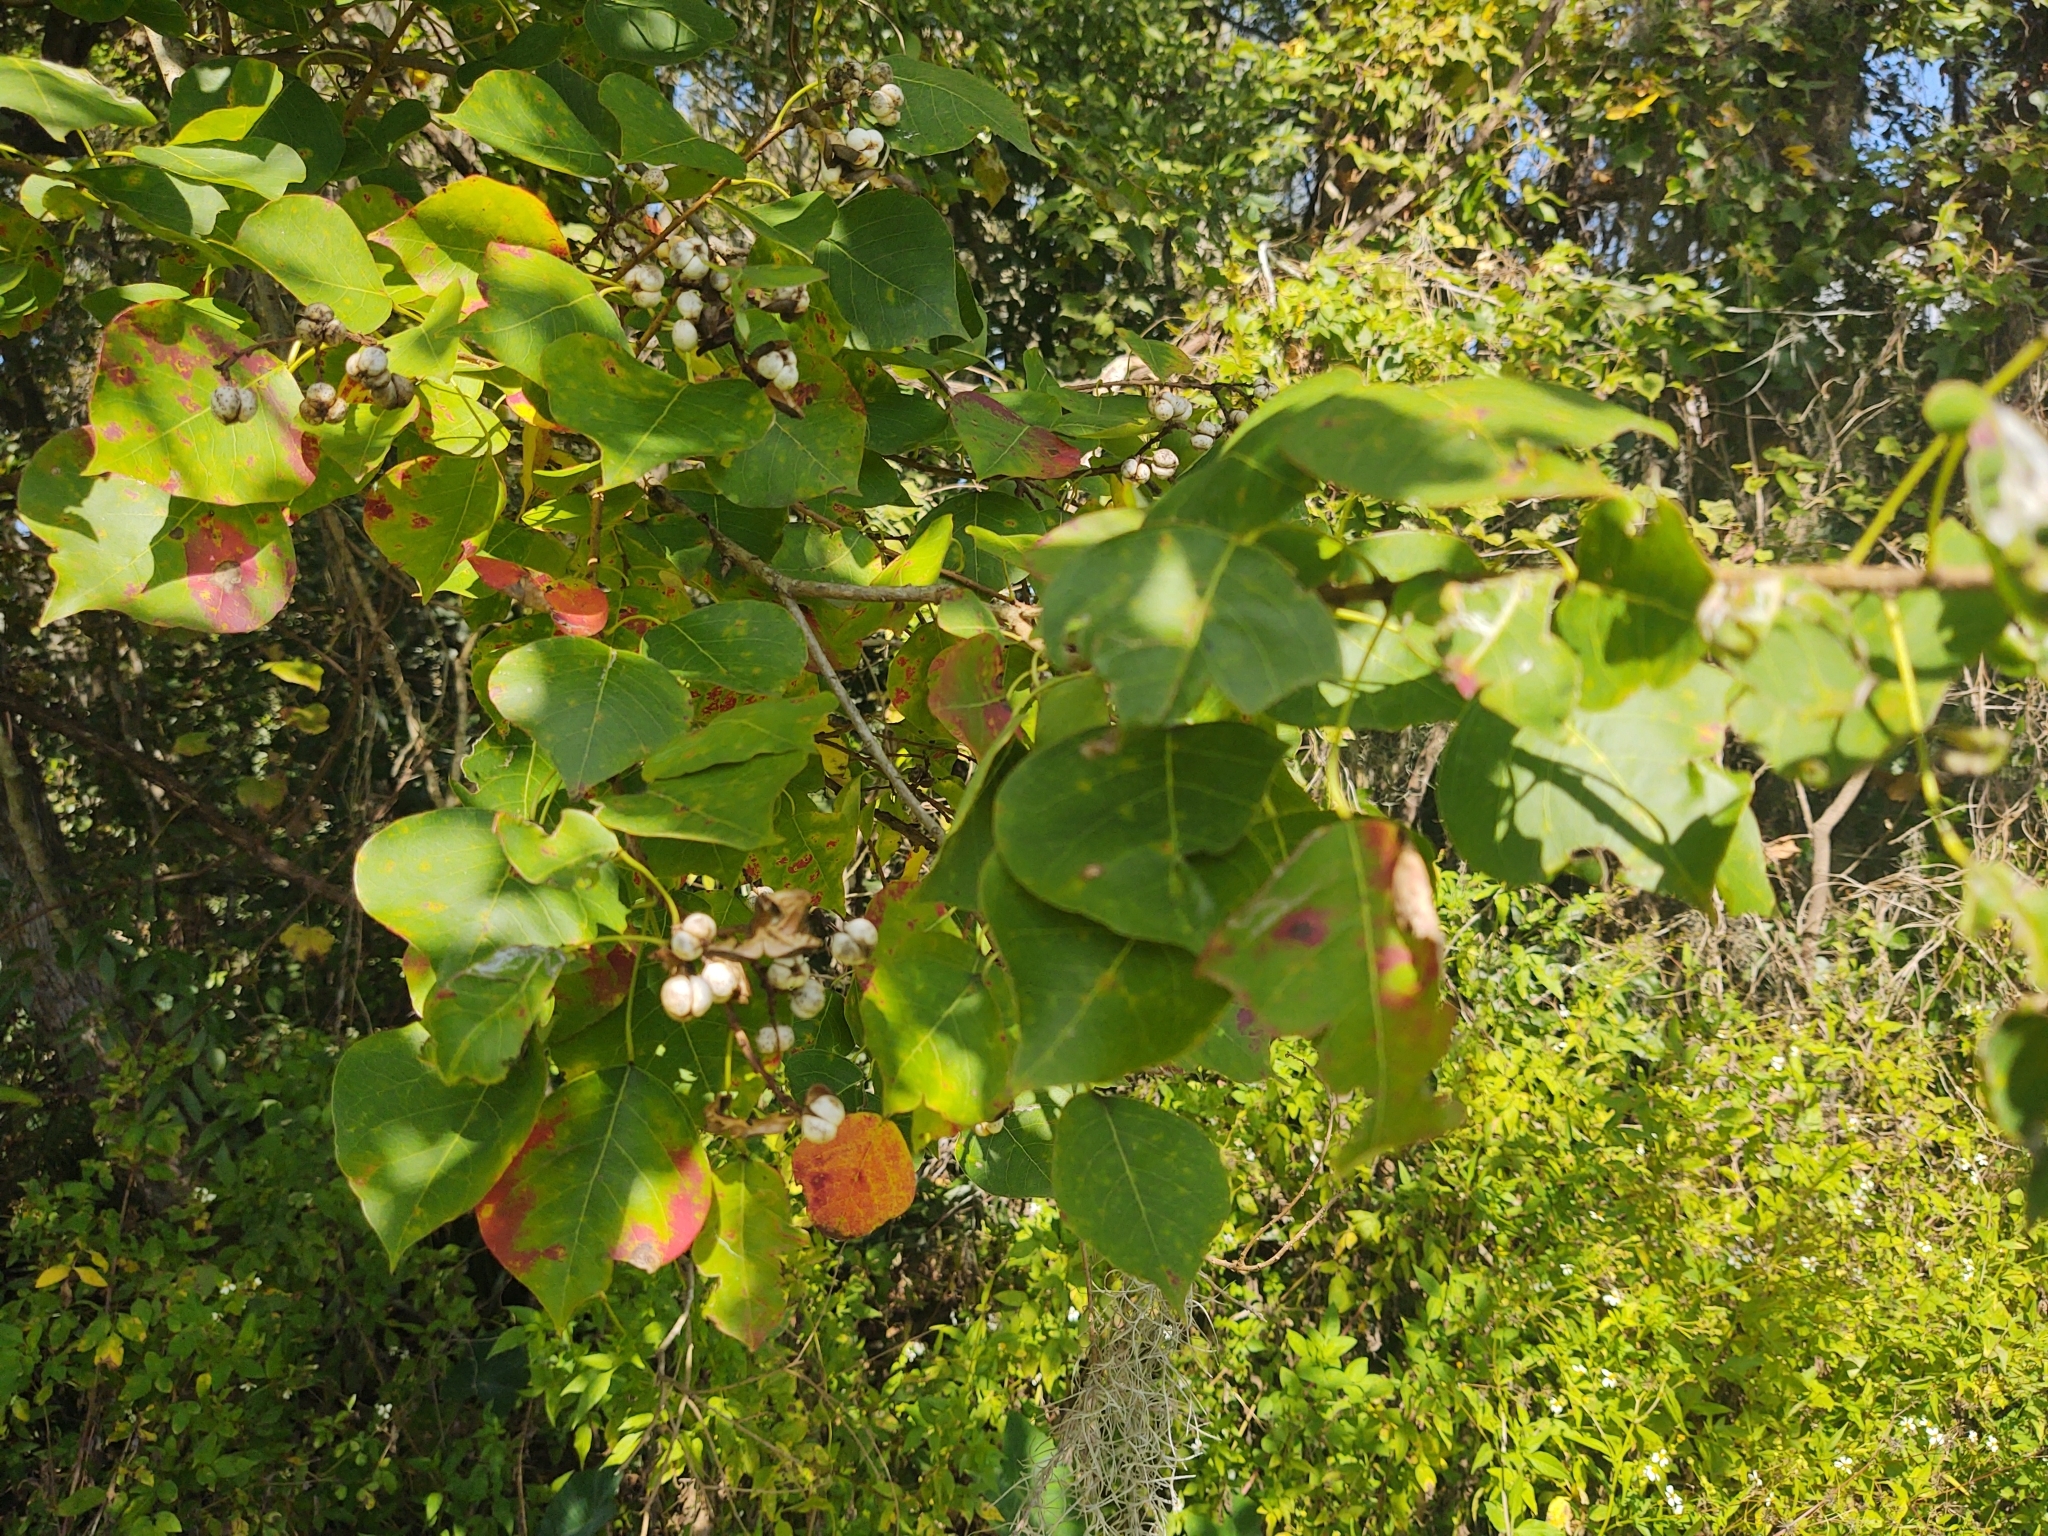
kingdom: Plantae
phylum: Tracheophyta
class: Magnoliopsida
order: Malpighiales
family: Euphorbiaceae
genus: Triadica
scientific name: Triadica sebifera
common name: Chinese tallow
